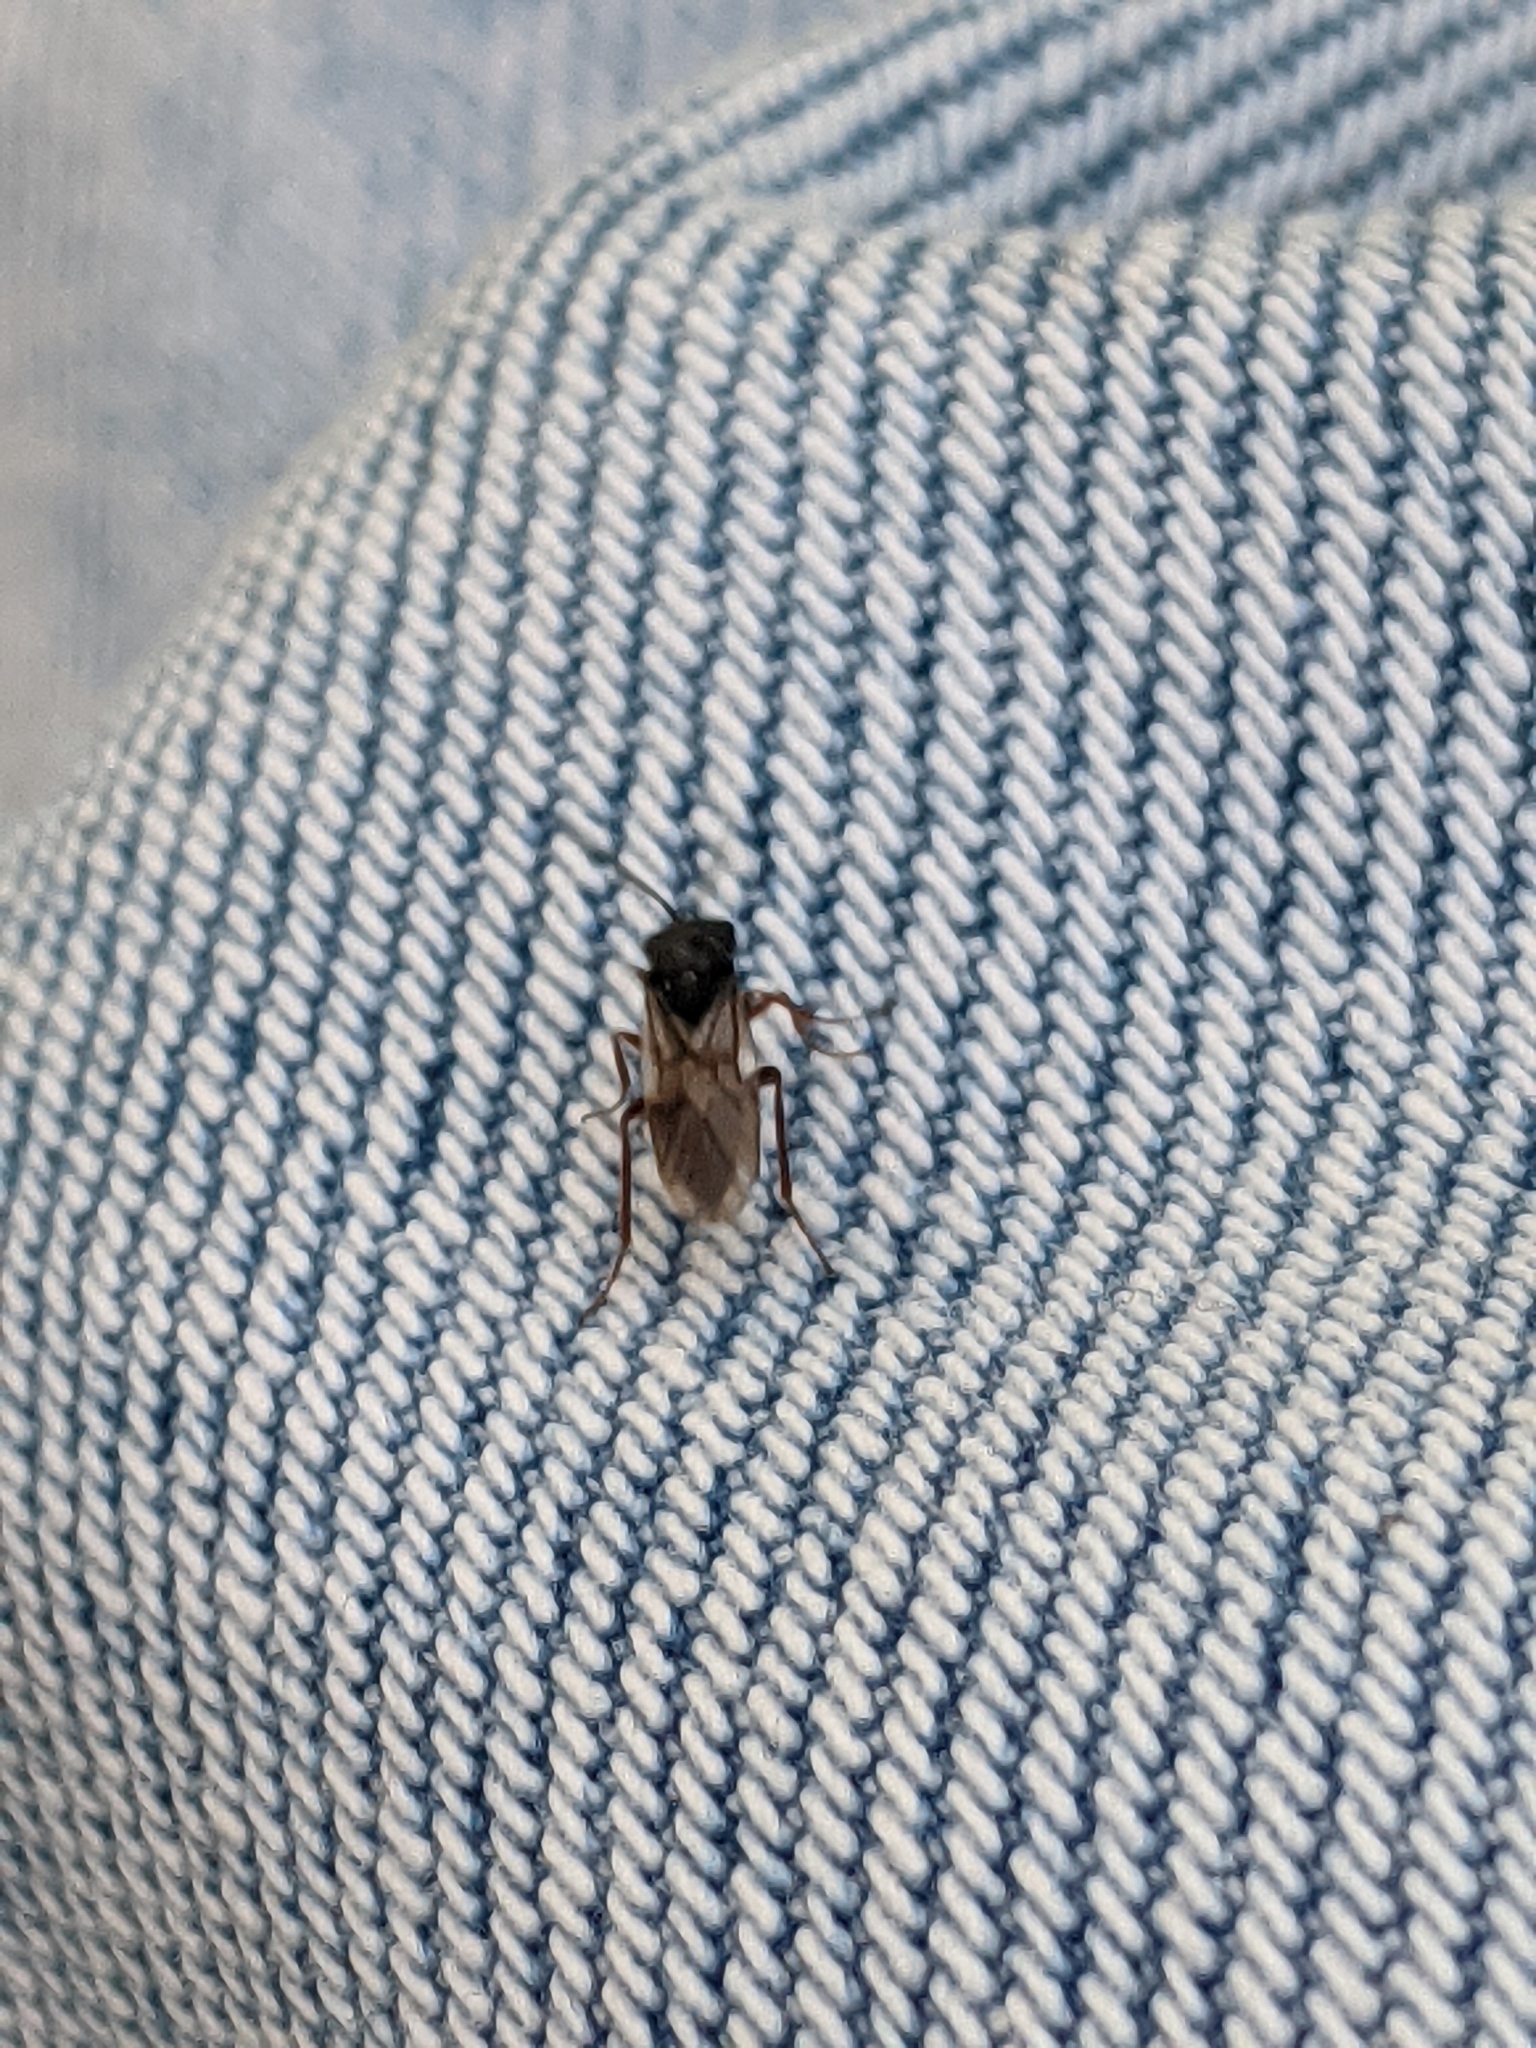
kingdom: Animalia
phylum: Arthropoda
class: Insecta
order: Hymenoptera
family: Cynipidae
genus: Diplolepis
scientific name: Diplolepis rosae
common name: Bedeguar gall
